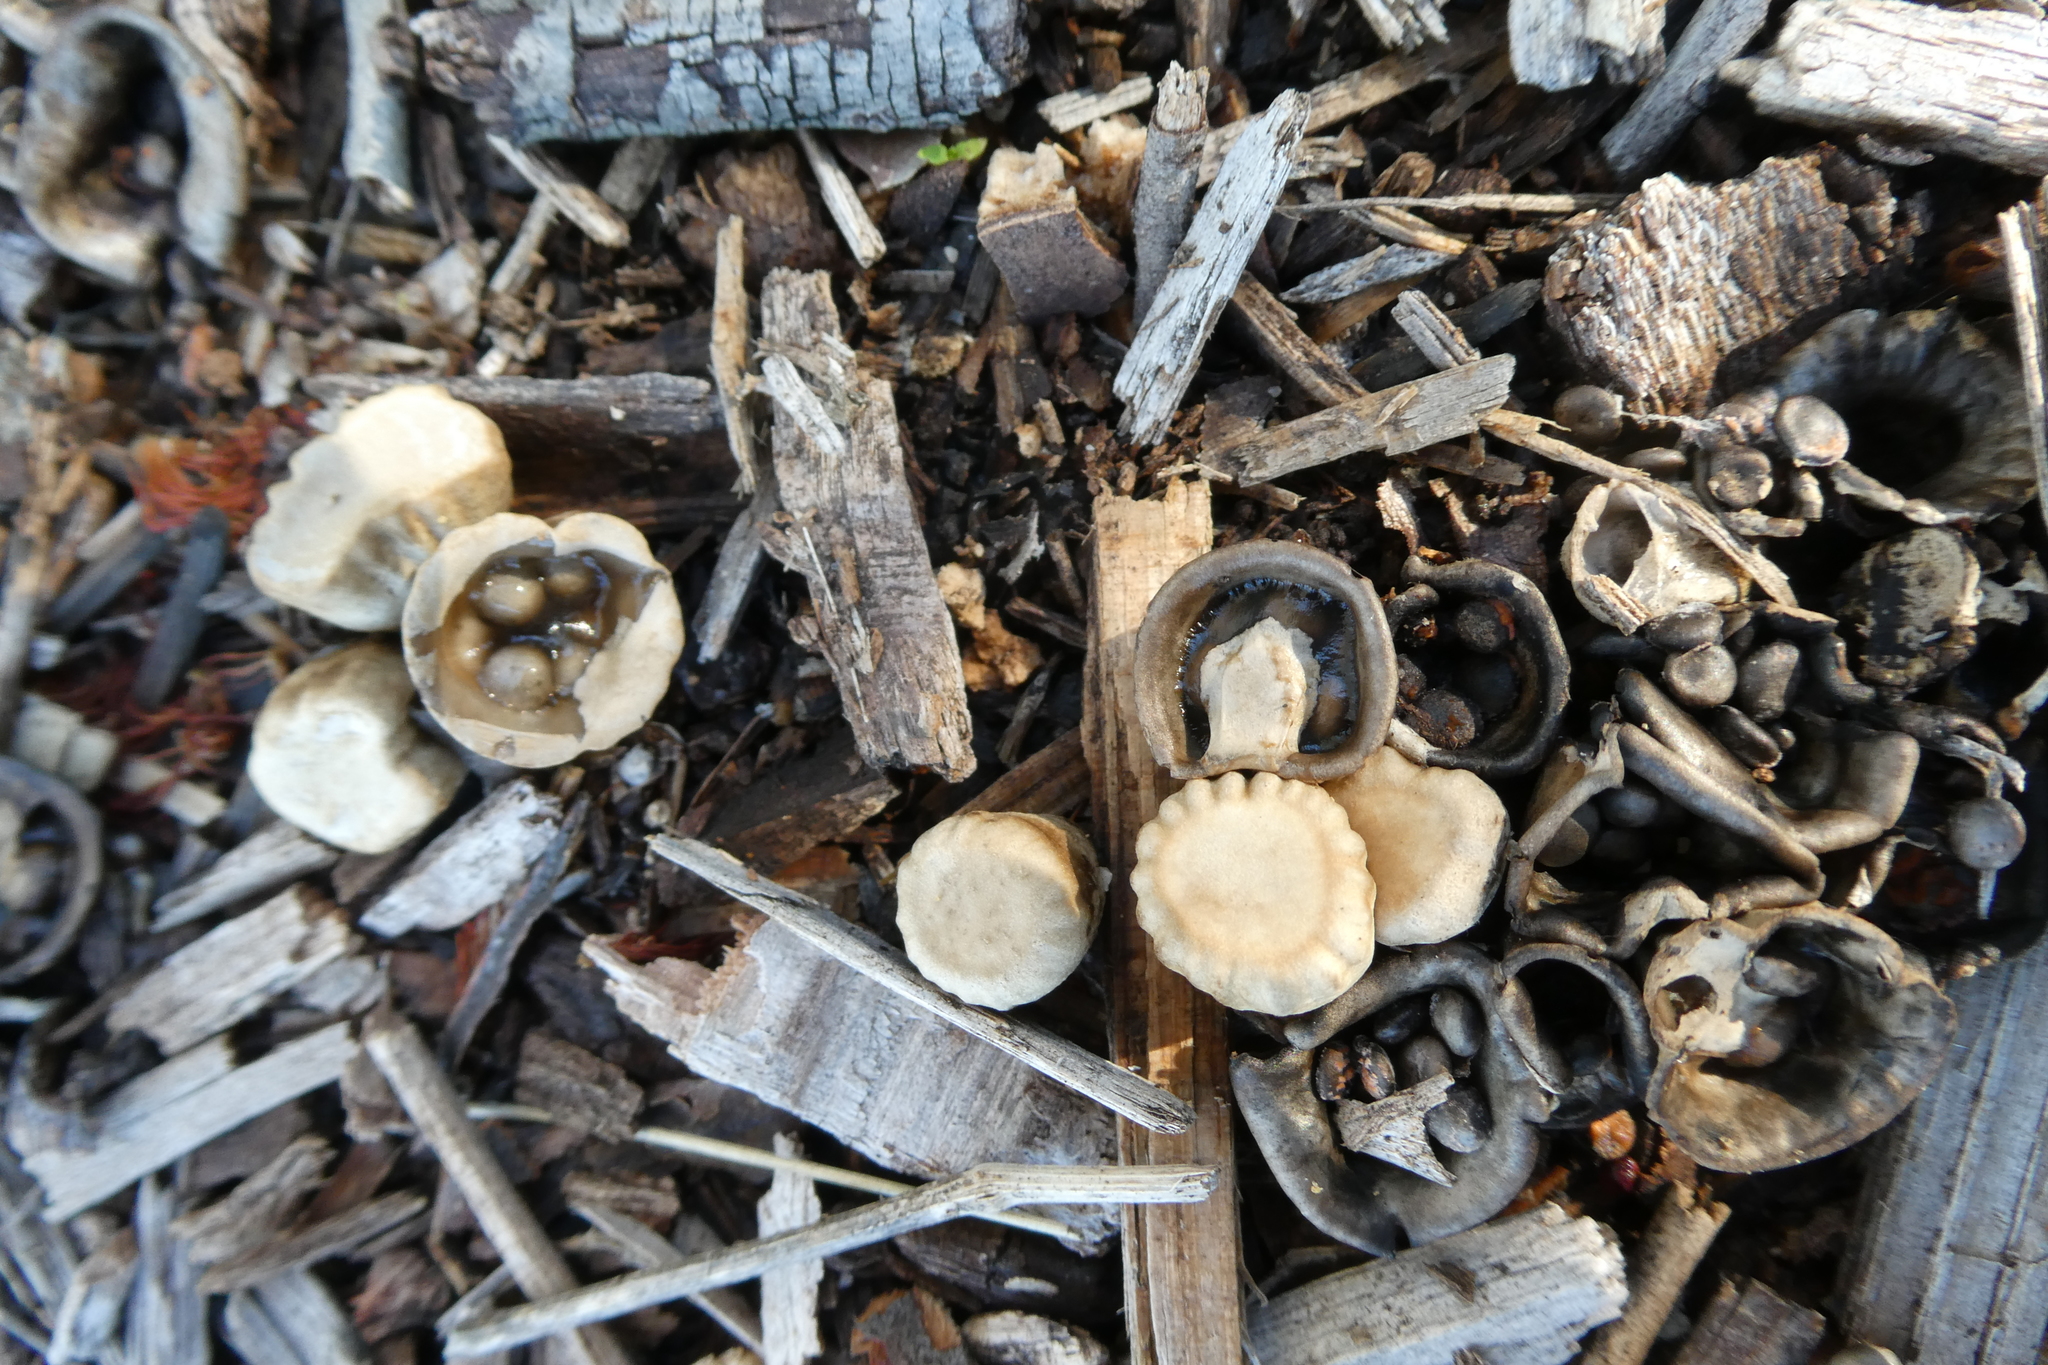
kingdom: Fungi
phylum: Basidiomycota
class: Agaricomycetes
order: Agaricales
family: Agaricaceae
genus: Cyathus
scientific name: Cyathus olla
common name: Field bird's nest
